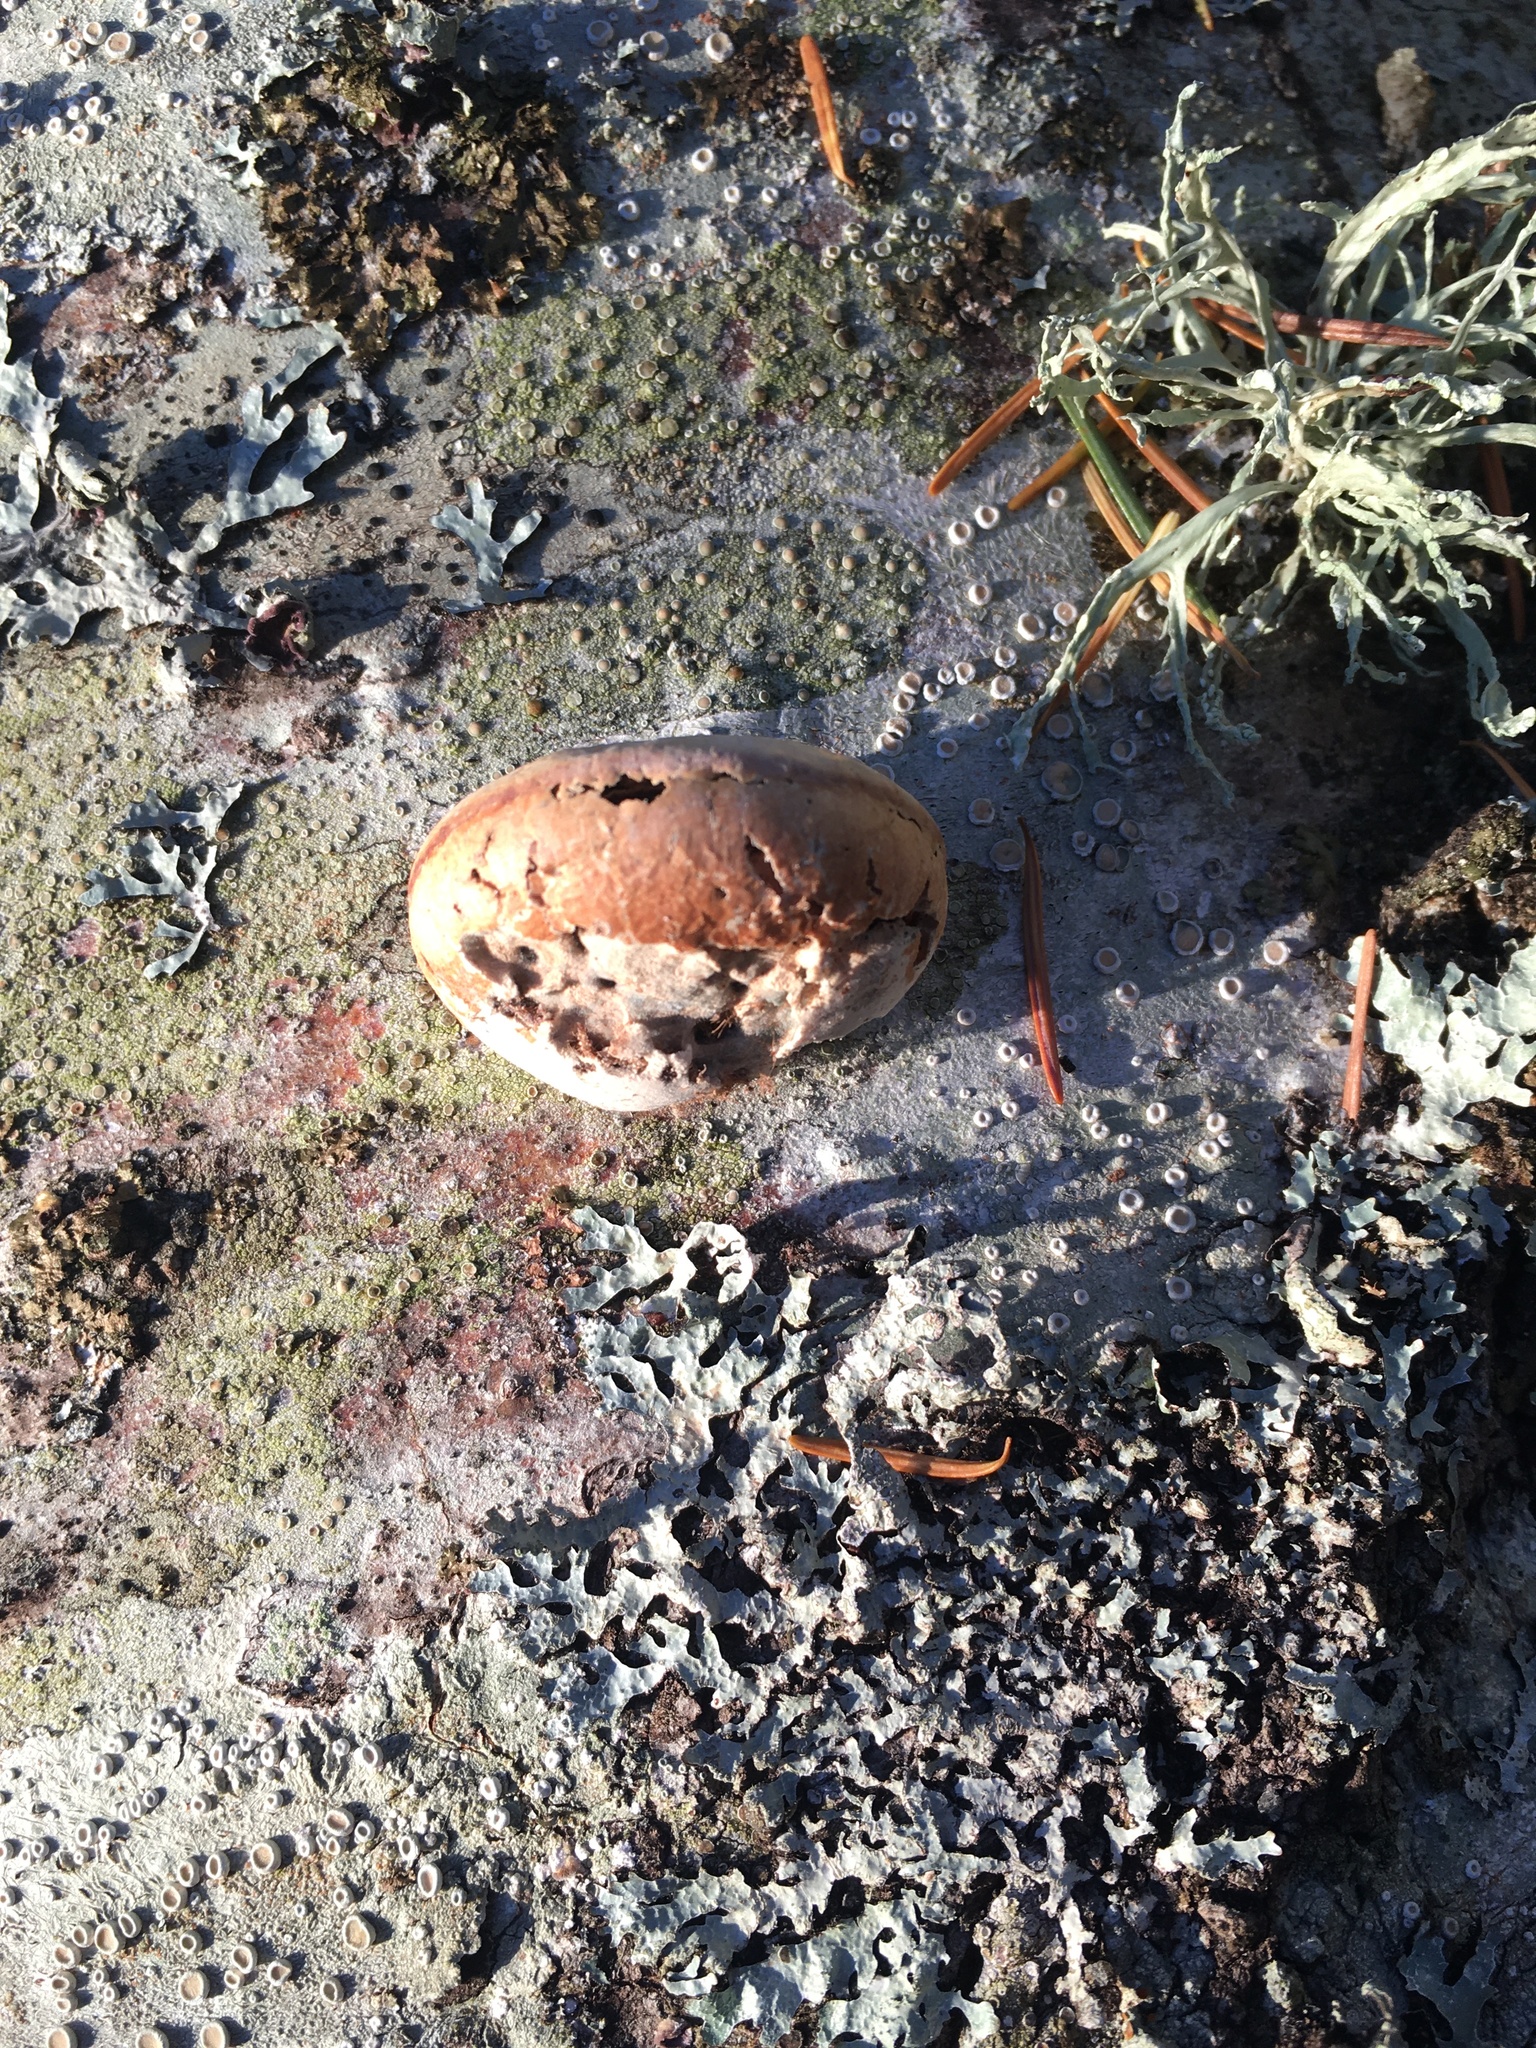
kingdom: Fungi
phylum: Basidiomycota
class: Agaricomycetes
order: Polyporales
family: Polyporaceae
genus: Cryptoporus
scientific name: Cryptoporus volvatus
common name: Veiled polypore
